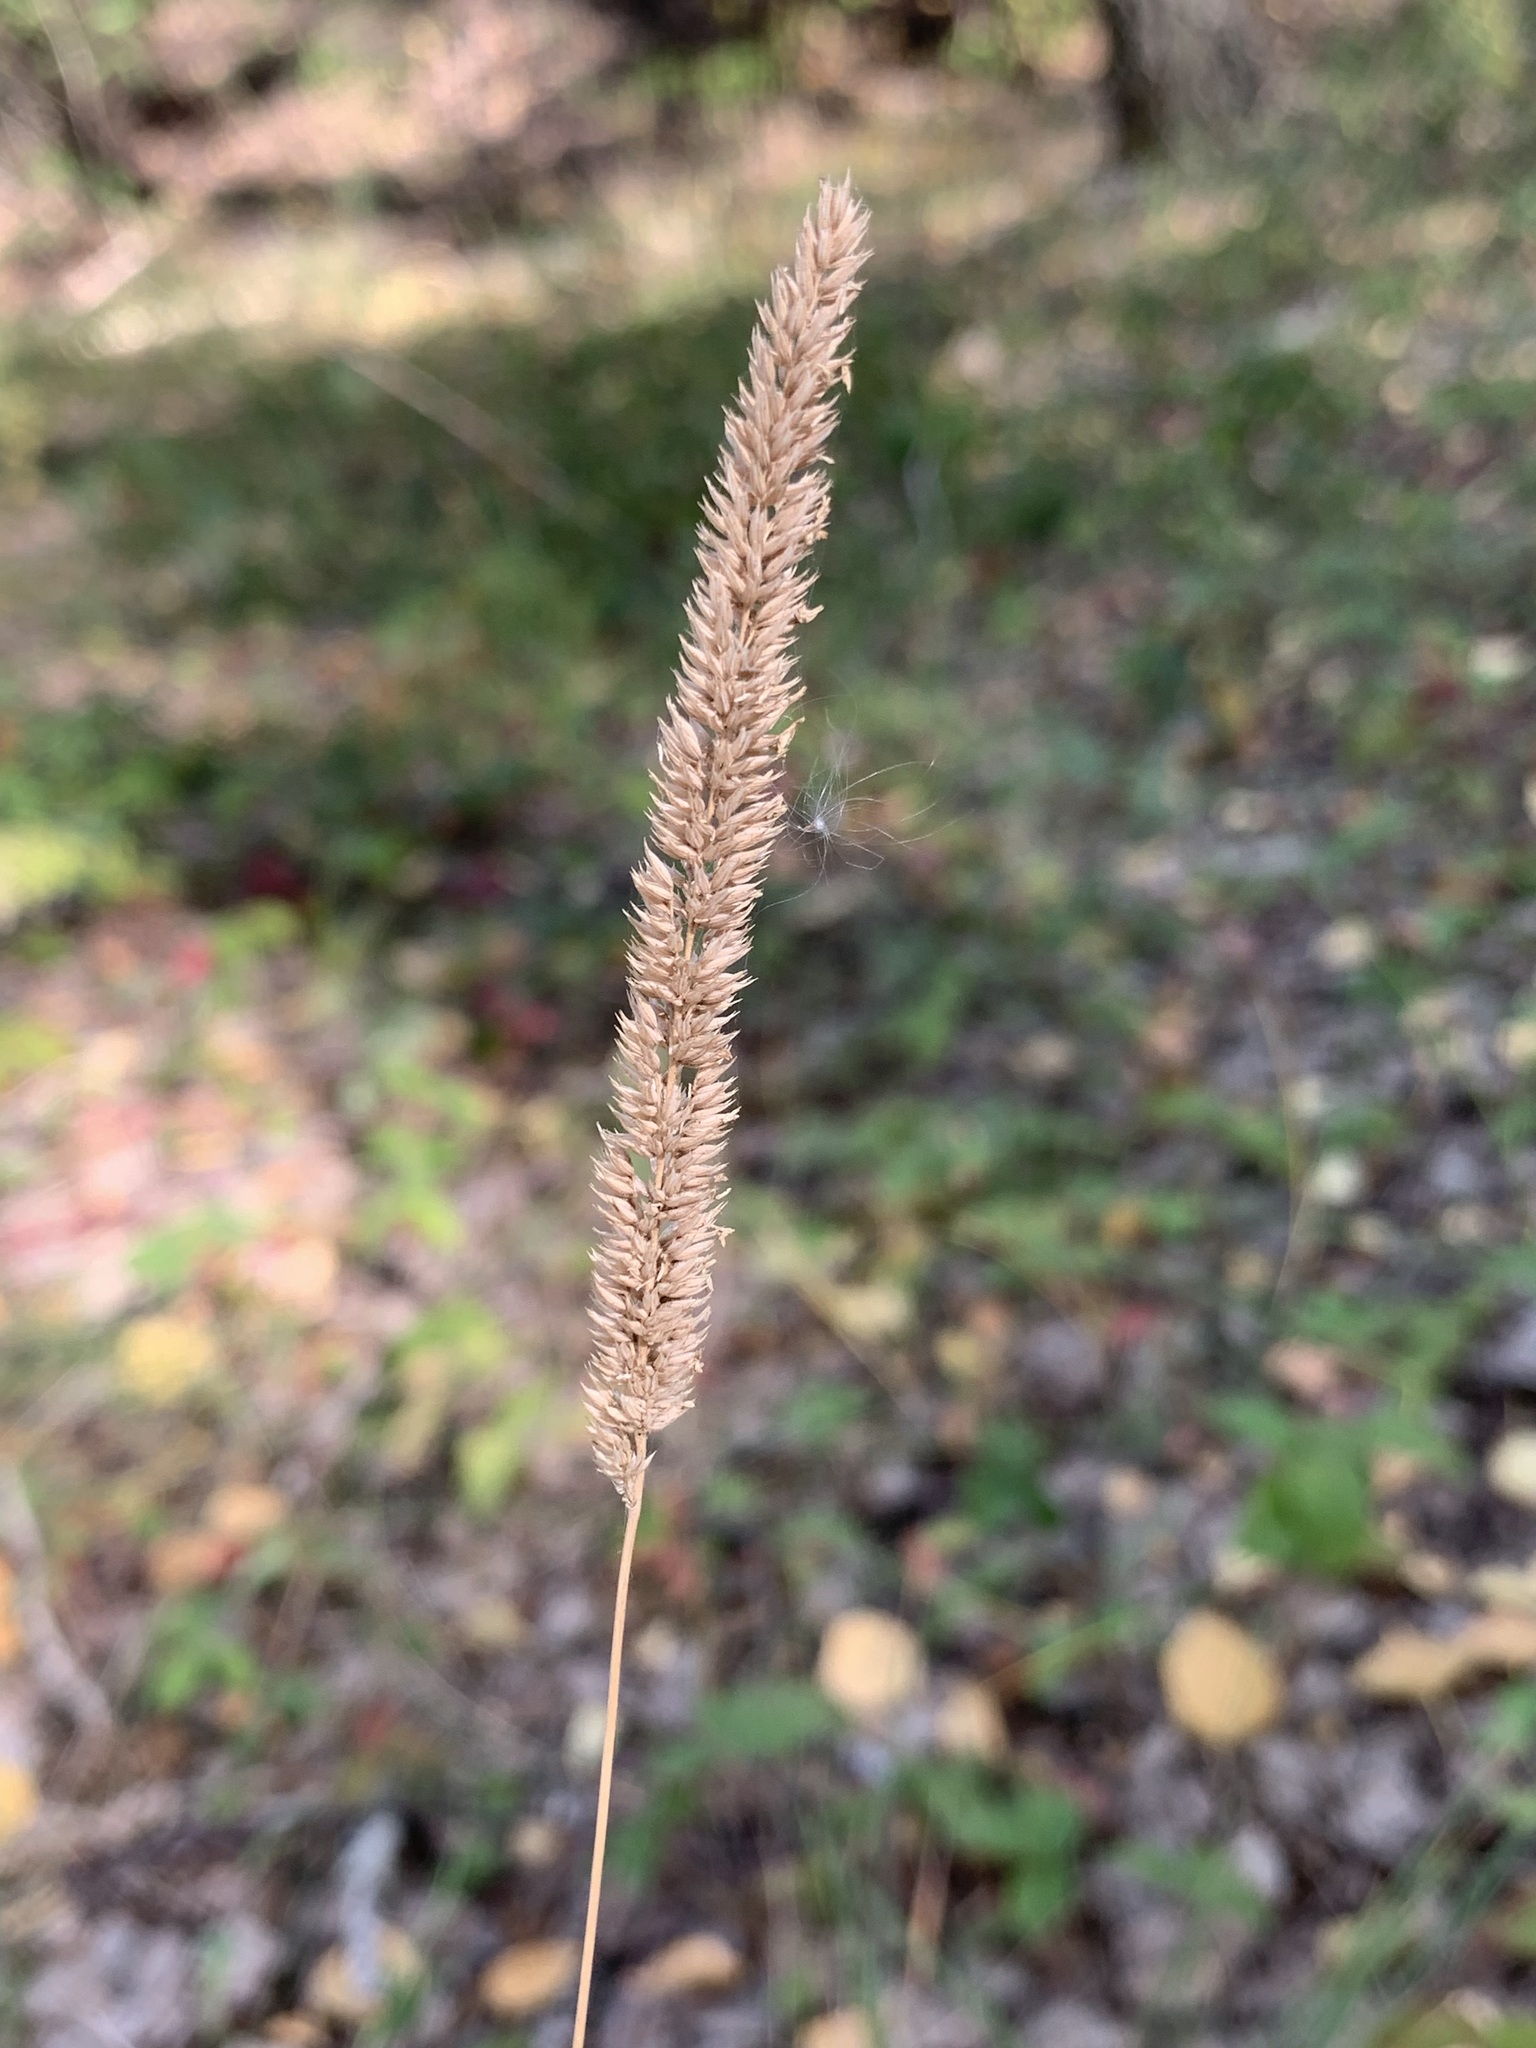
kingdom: Plantae
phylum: Tracheophyta
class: Liliopsida
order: Poales
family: Poaceae
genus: Phleum
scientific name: Phleum phleoides
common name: Purple-stem cat's-tail
